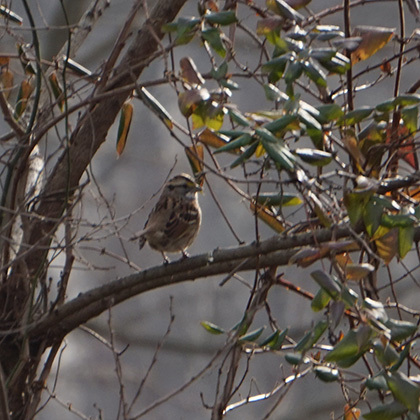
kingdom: Animalia
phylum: Chordata
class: Aves
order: Passeriformes
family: Passerellidae
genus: Zonotrichia
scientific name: Zonotrichia albicollis
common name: White-throated sparrow
